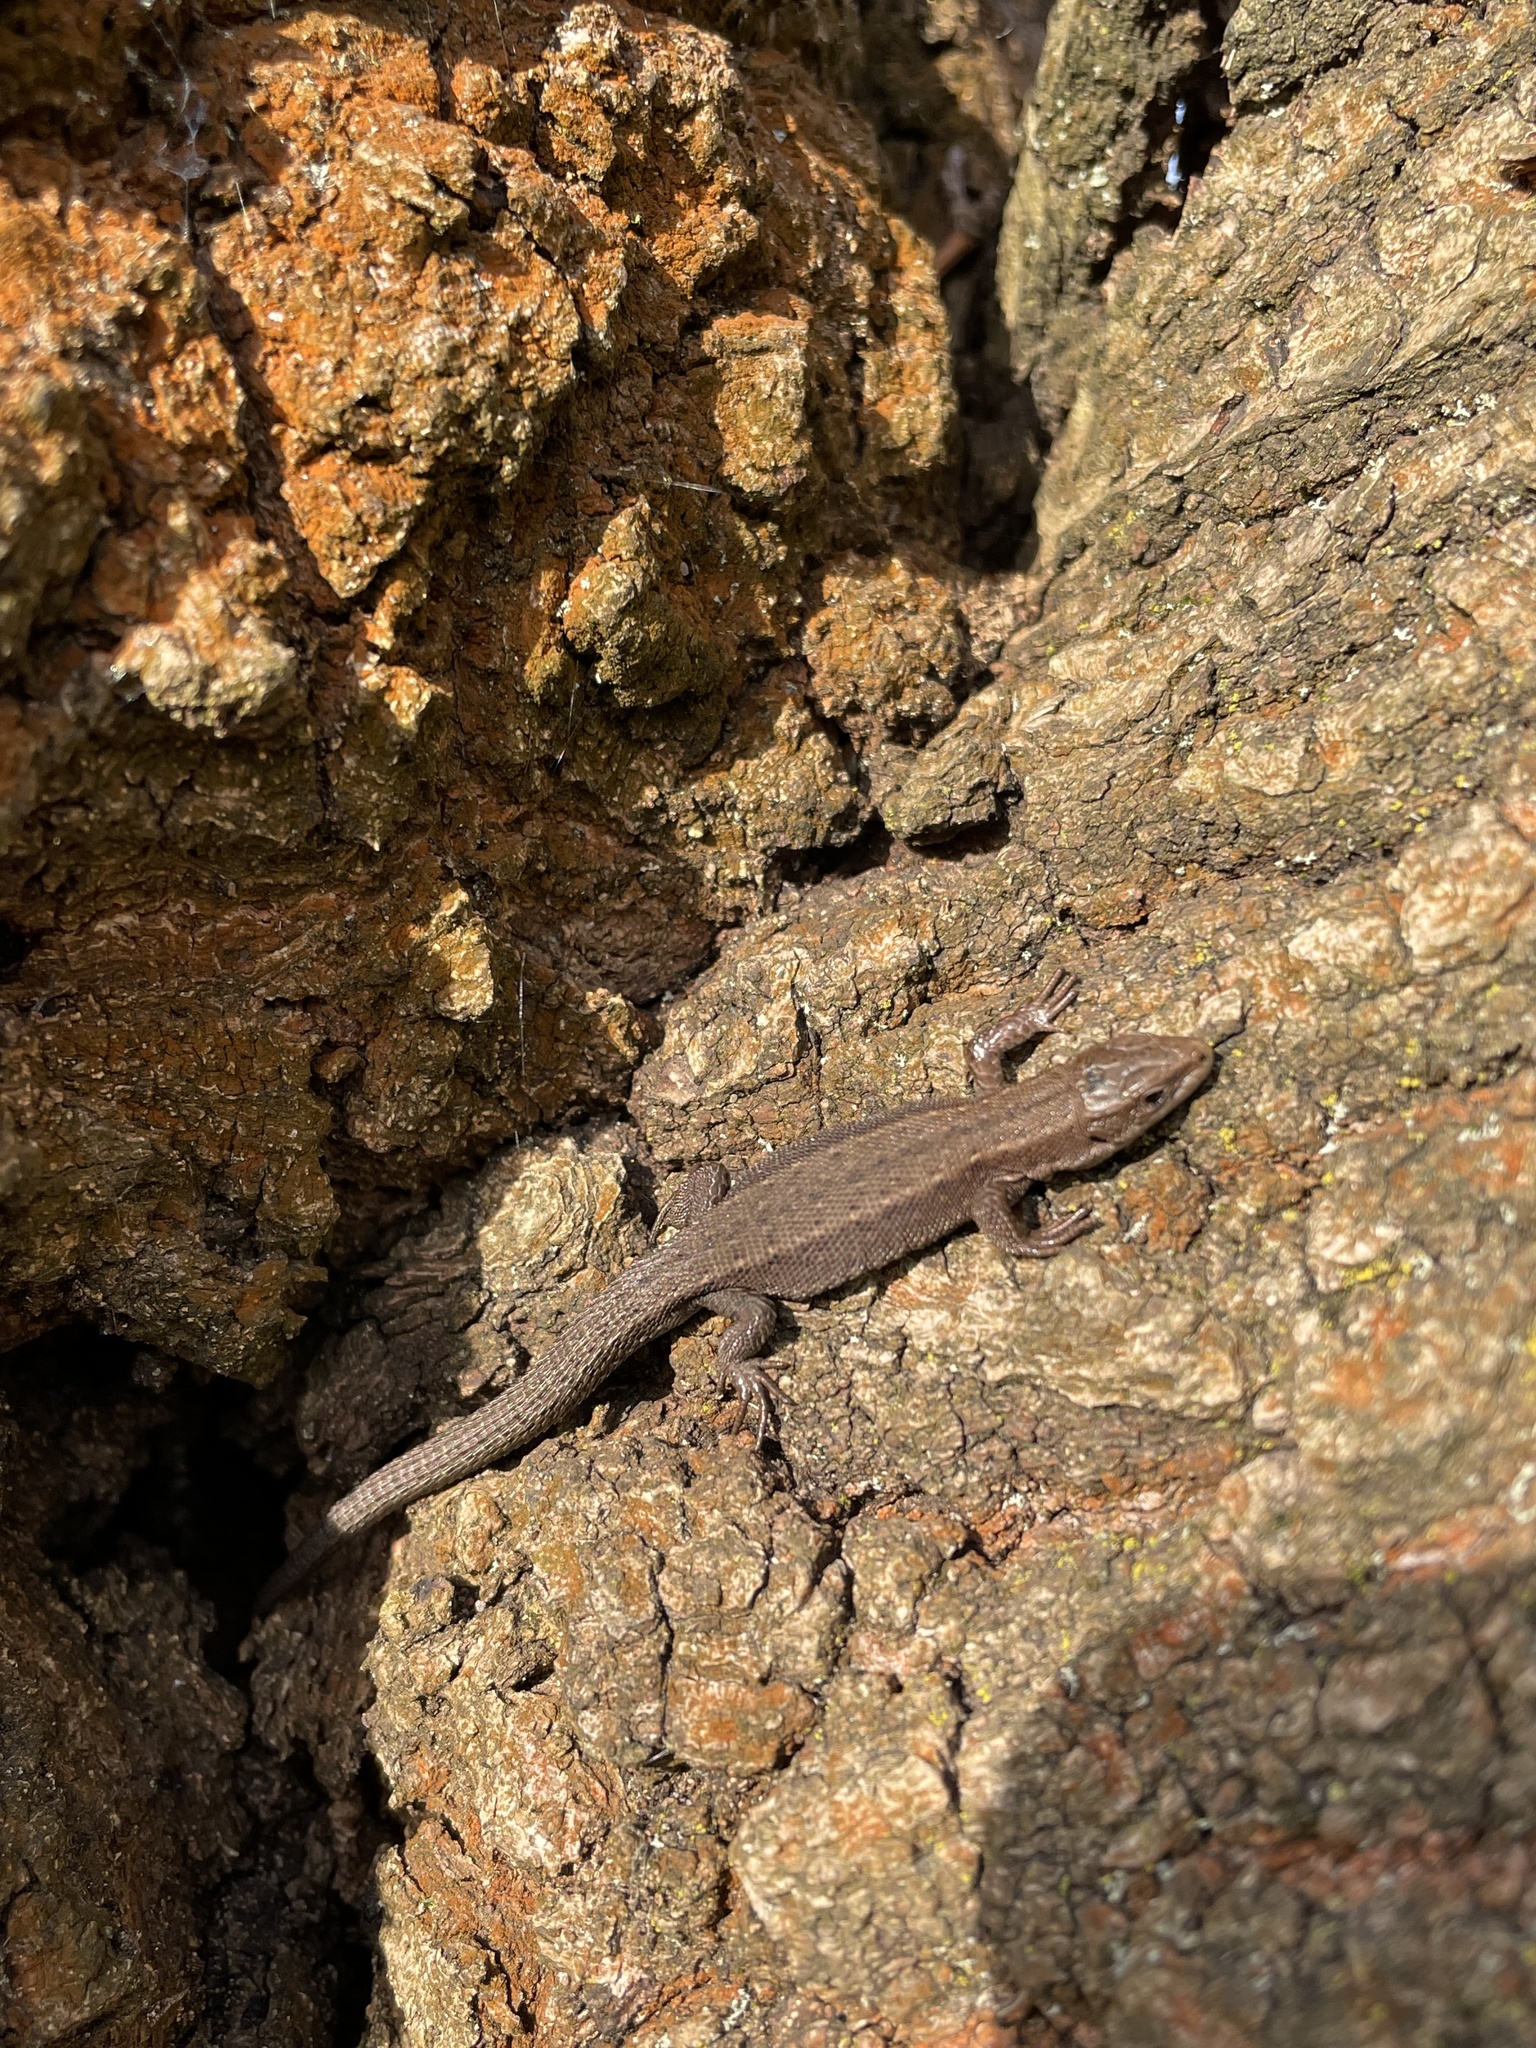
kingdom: Animalia
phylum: Chordata
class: Squamata
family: Lacertidae
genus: Zootoca
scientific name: Zootoca vivipara
